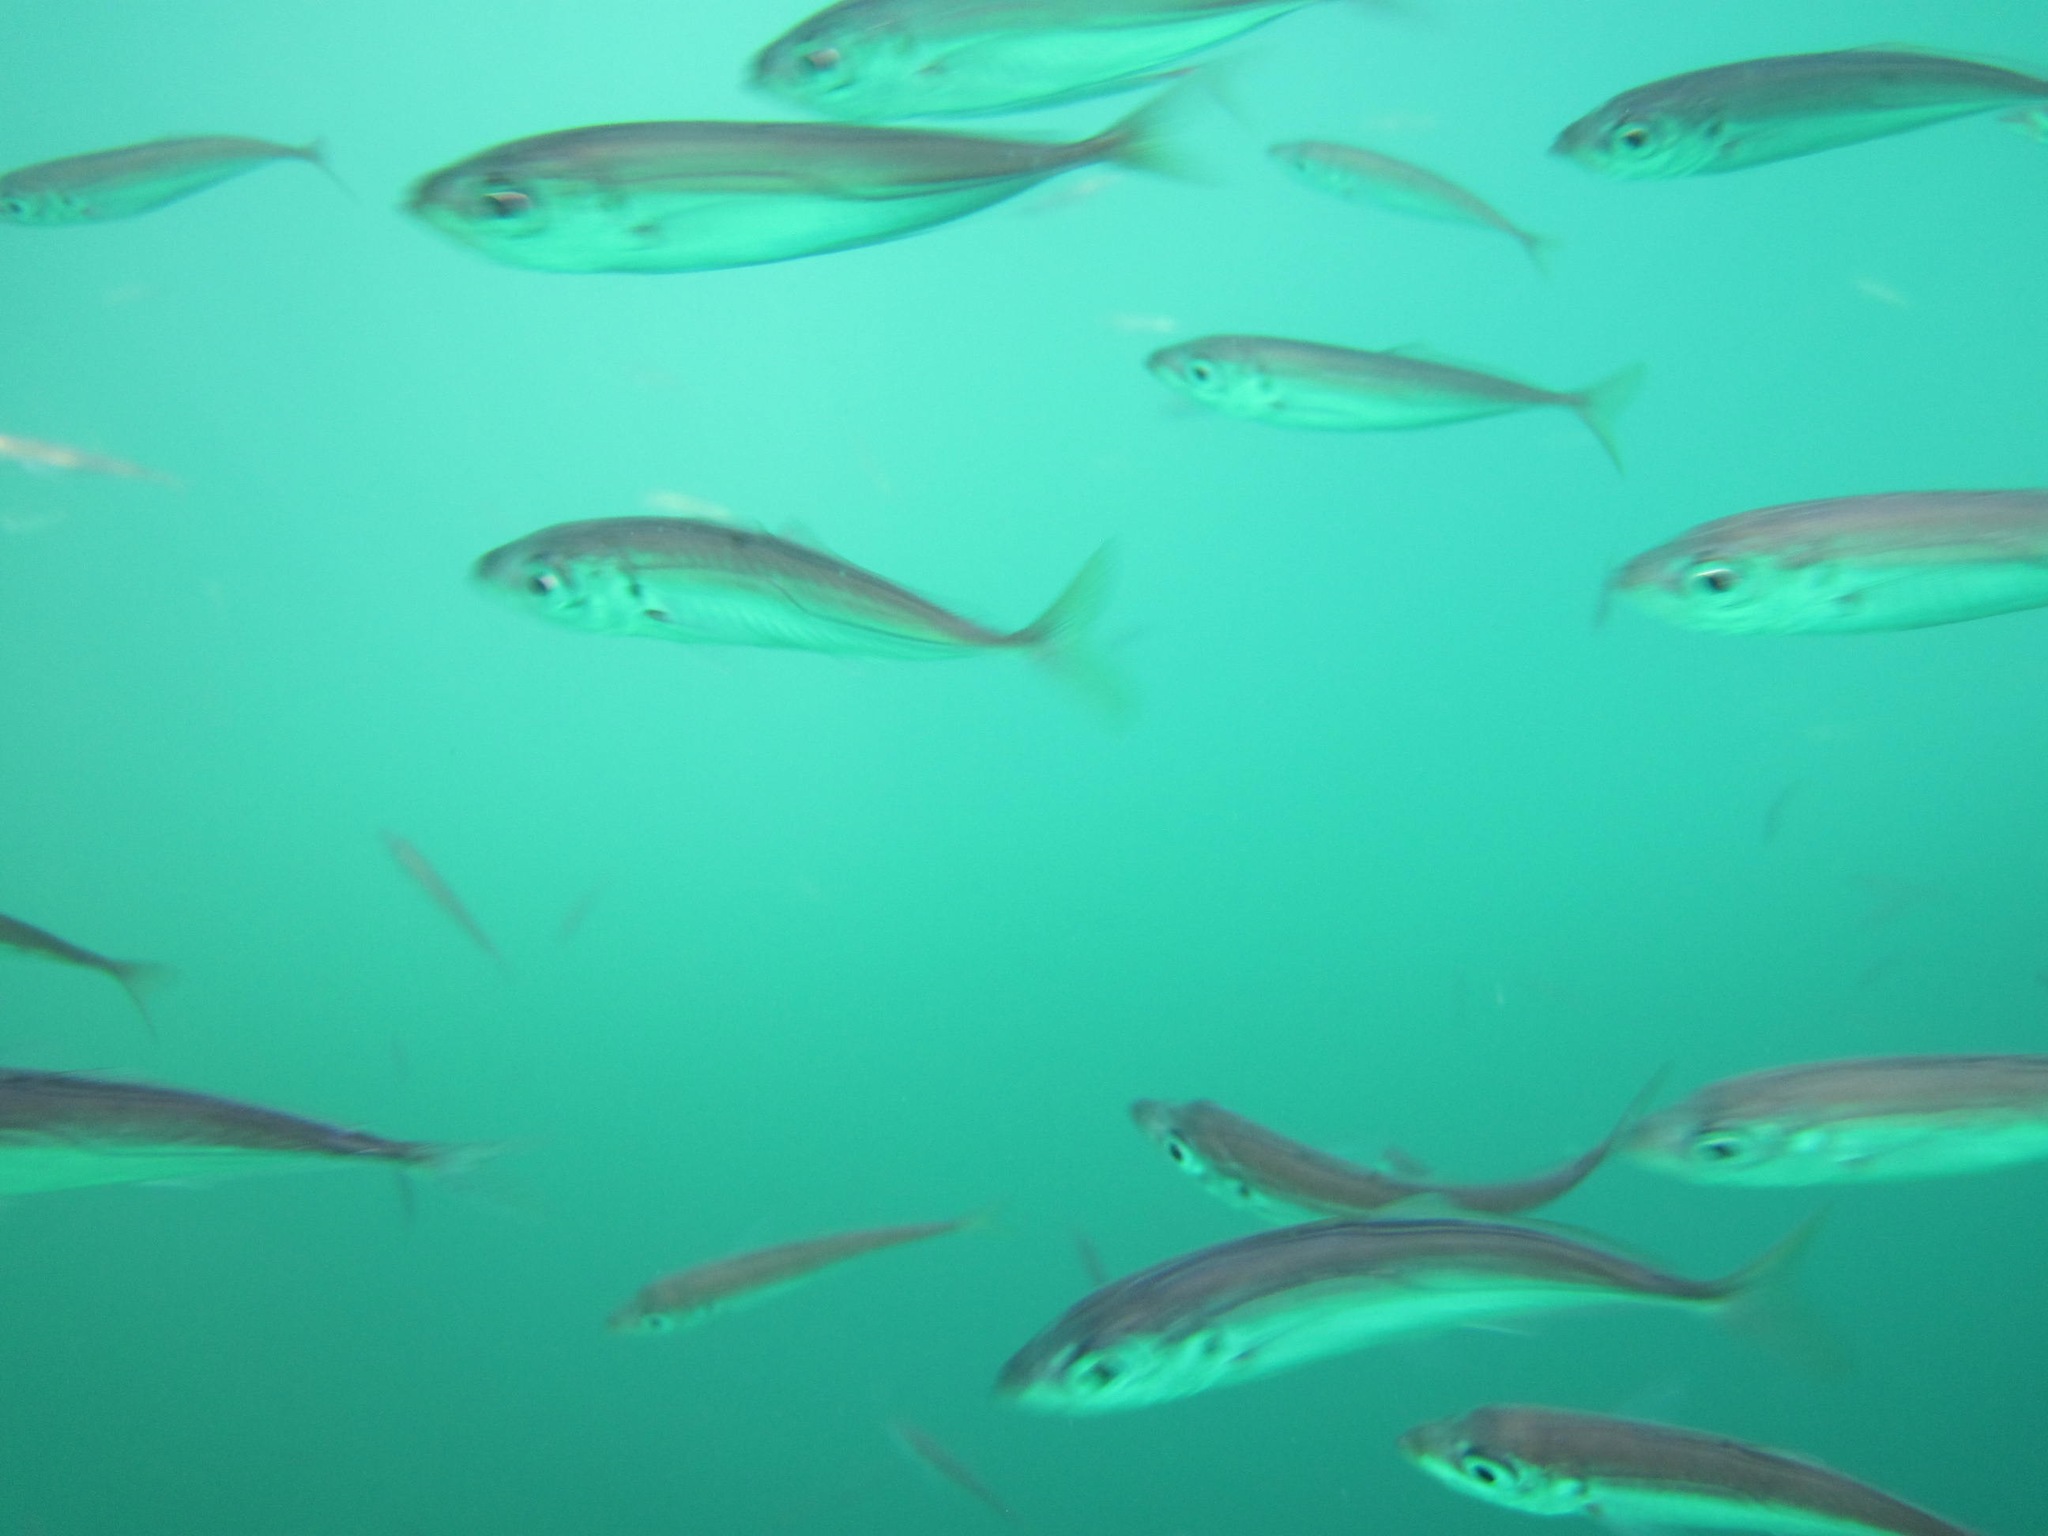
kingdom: Animalia
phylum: Chordata
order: Perciformes
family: Carangidae
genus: Trachurus
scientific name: Trachurus trachurus
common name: Horse mackerel
